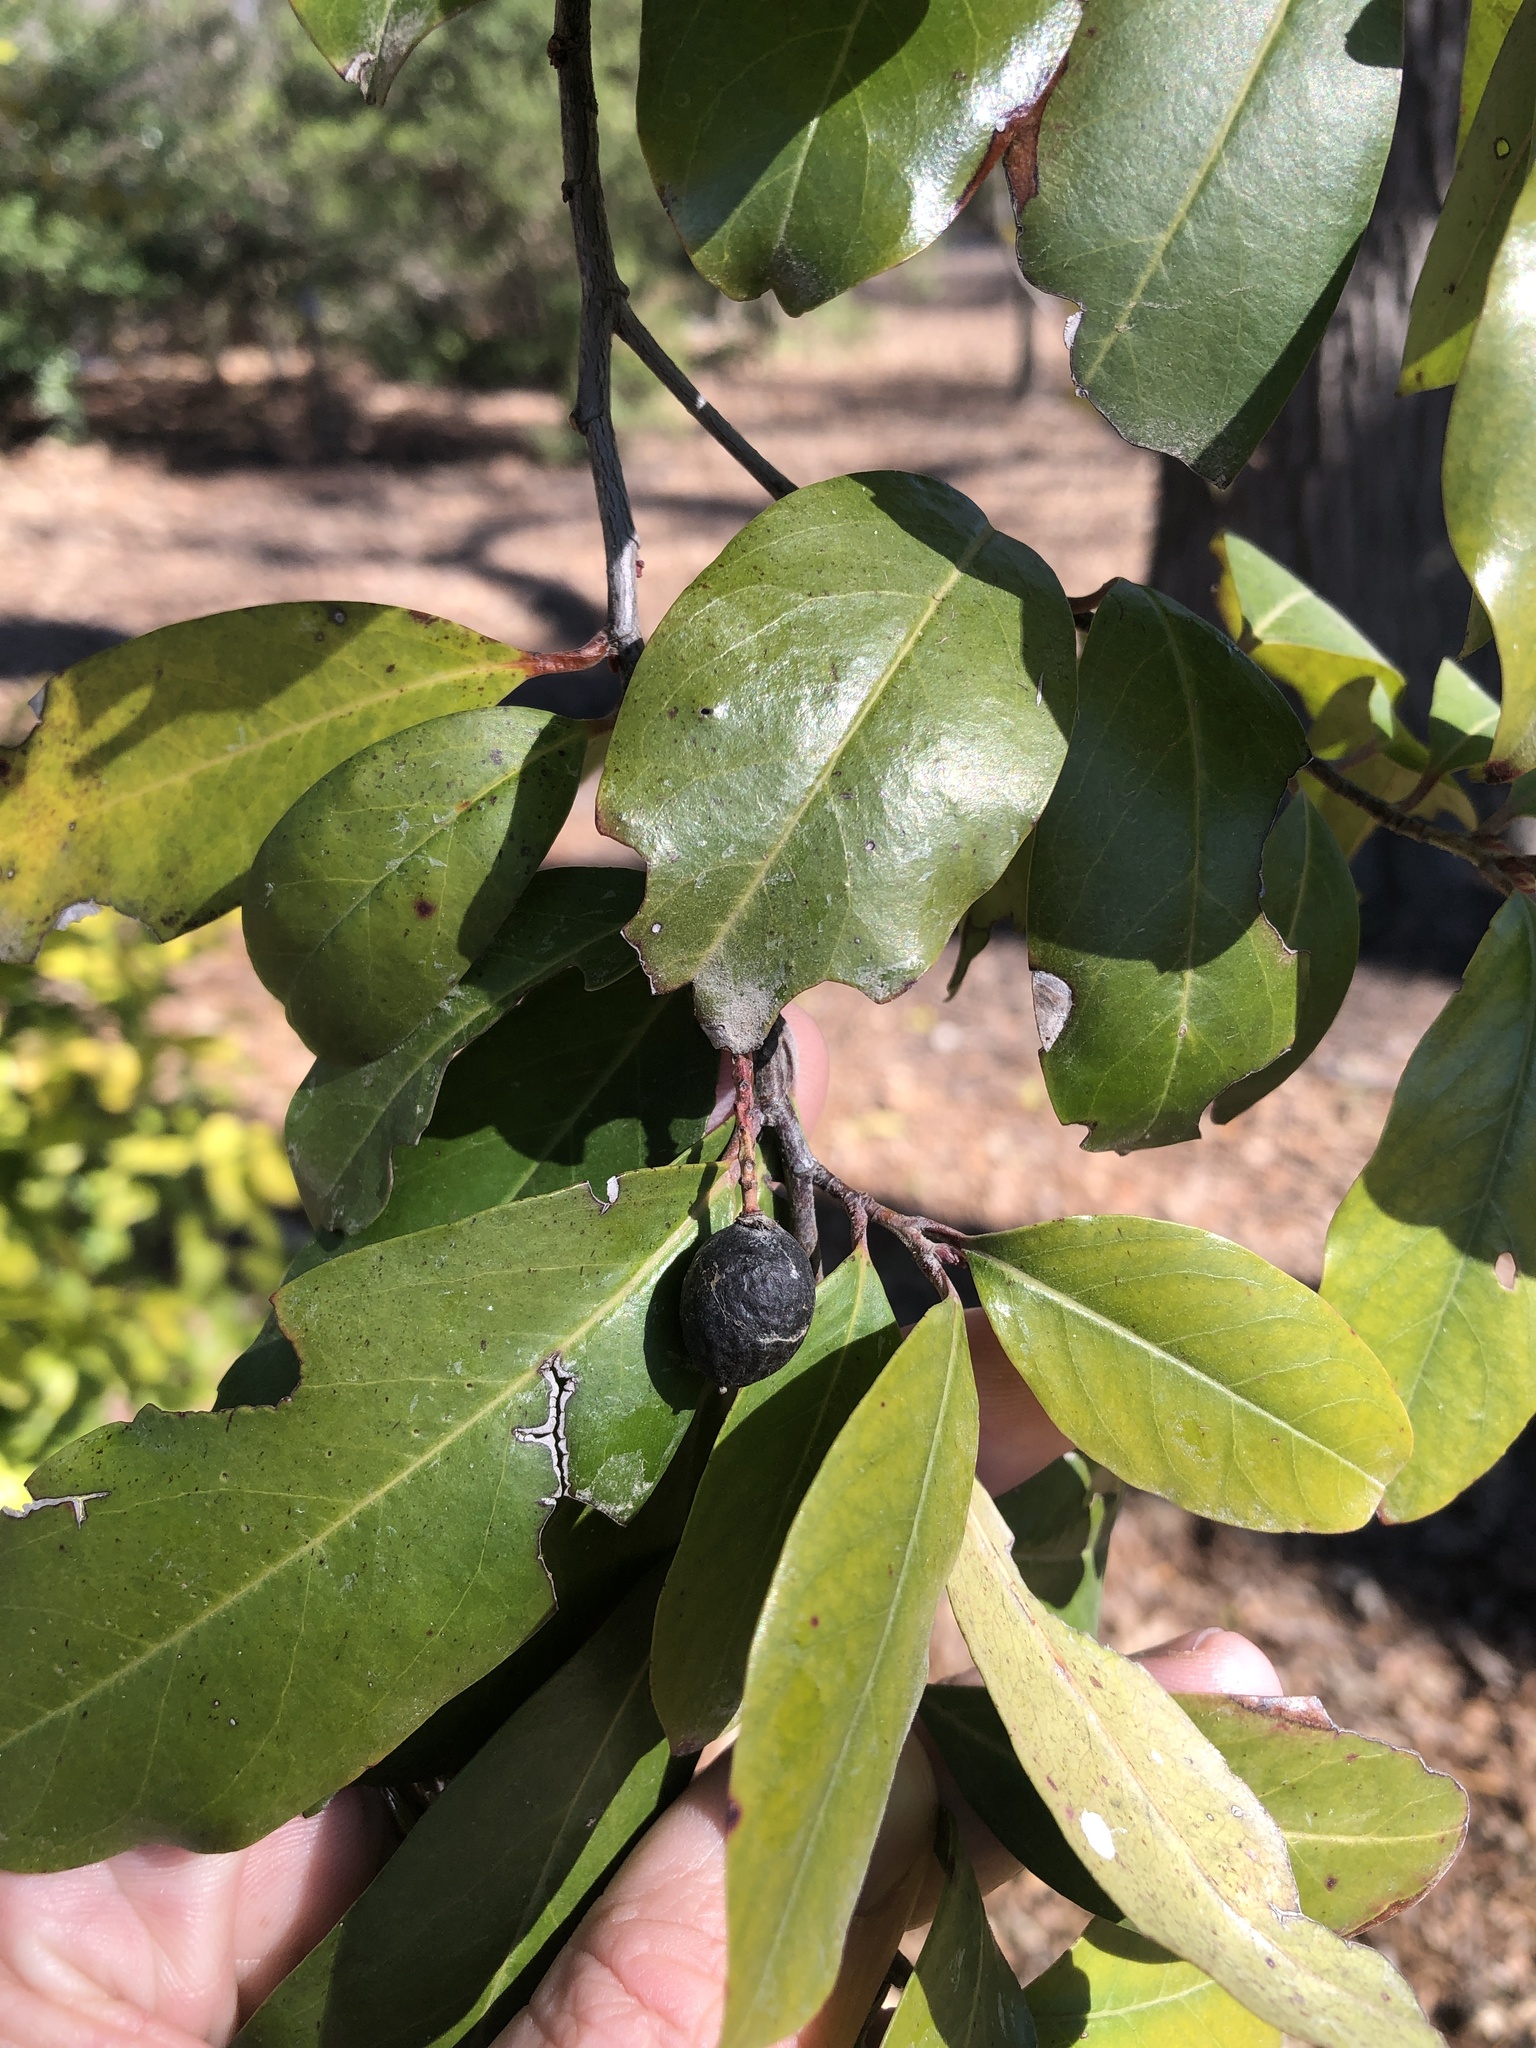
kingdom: Plantae
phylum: Tracheophyta
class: Magnoliopsida
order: Rosales
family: Rosaceae
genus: Prunus
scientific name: Prunus caroliniana
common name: Carolina laurel cherry
